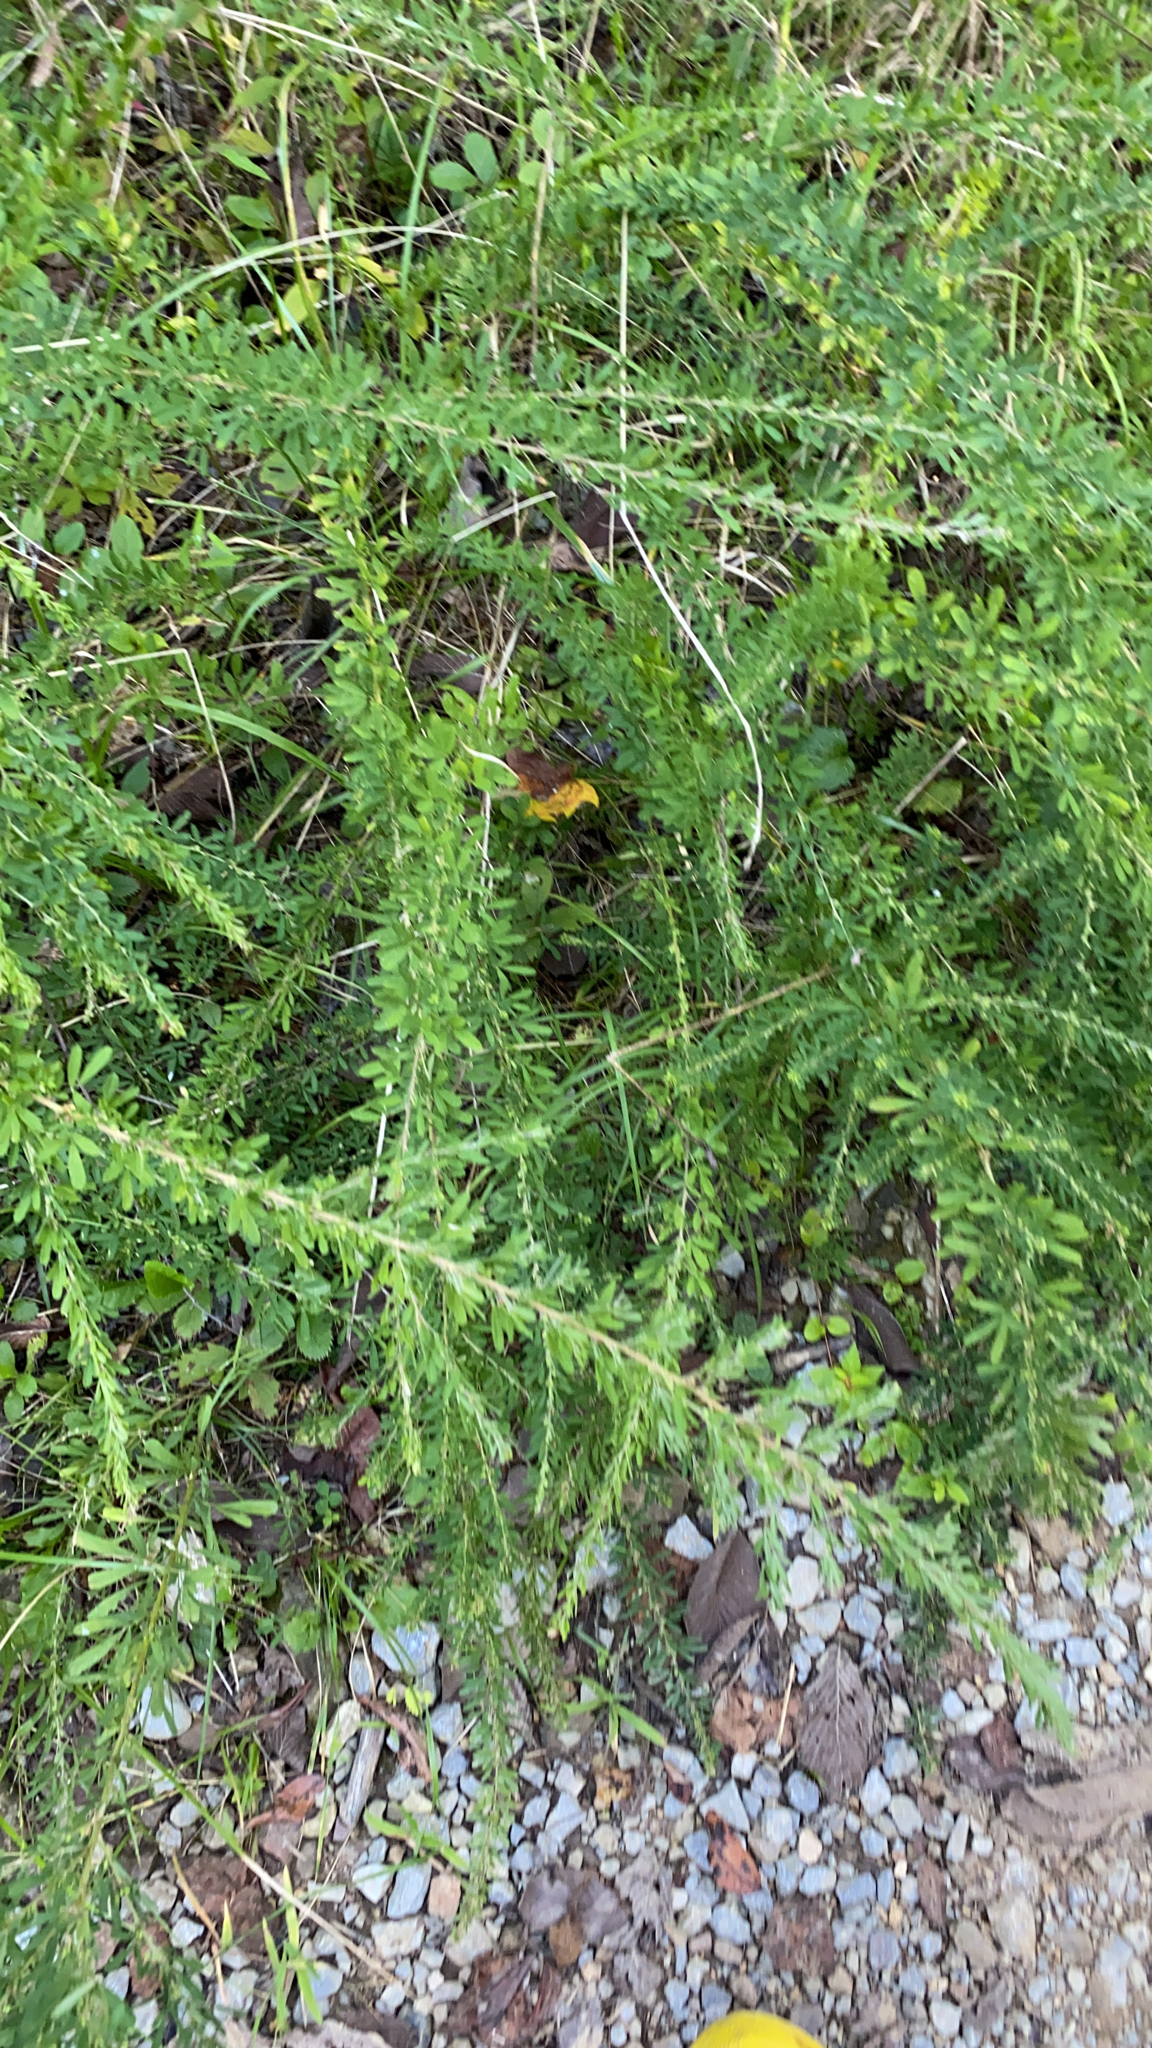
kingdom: Plantae
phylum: Tracheophyta
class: Magnoliopsida
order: Fabales
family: Fabaceae
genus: Lespedeza
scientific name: Lespedeza cuneata
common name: Chinese bush-clover
